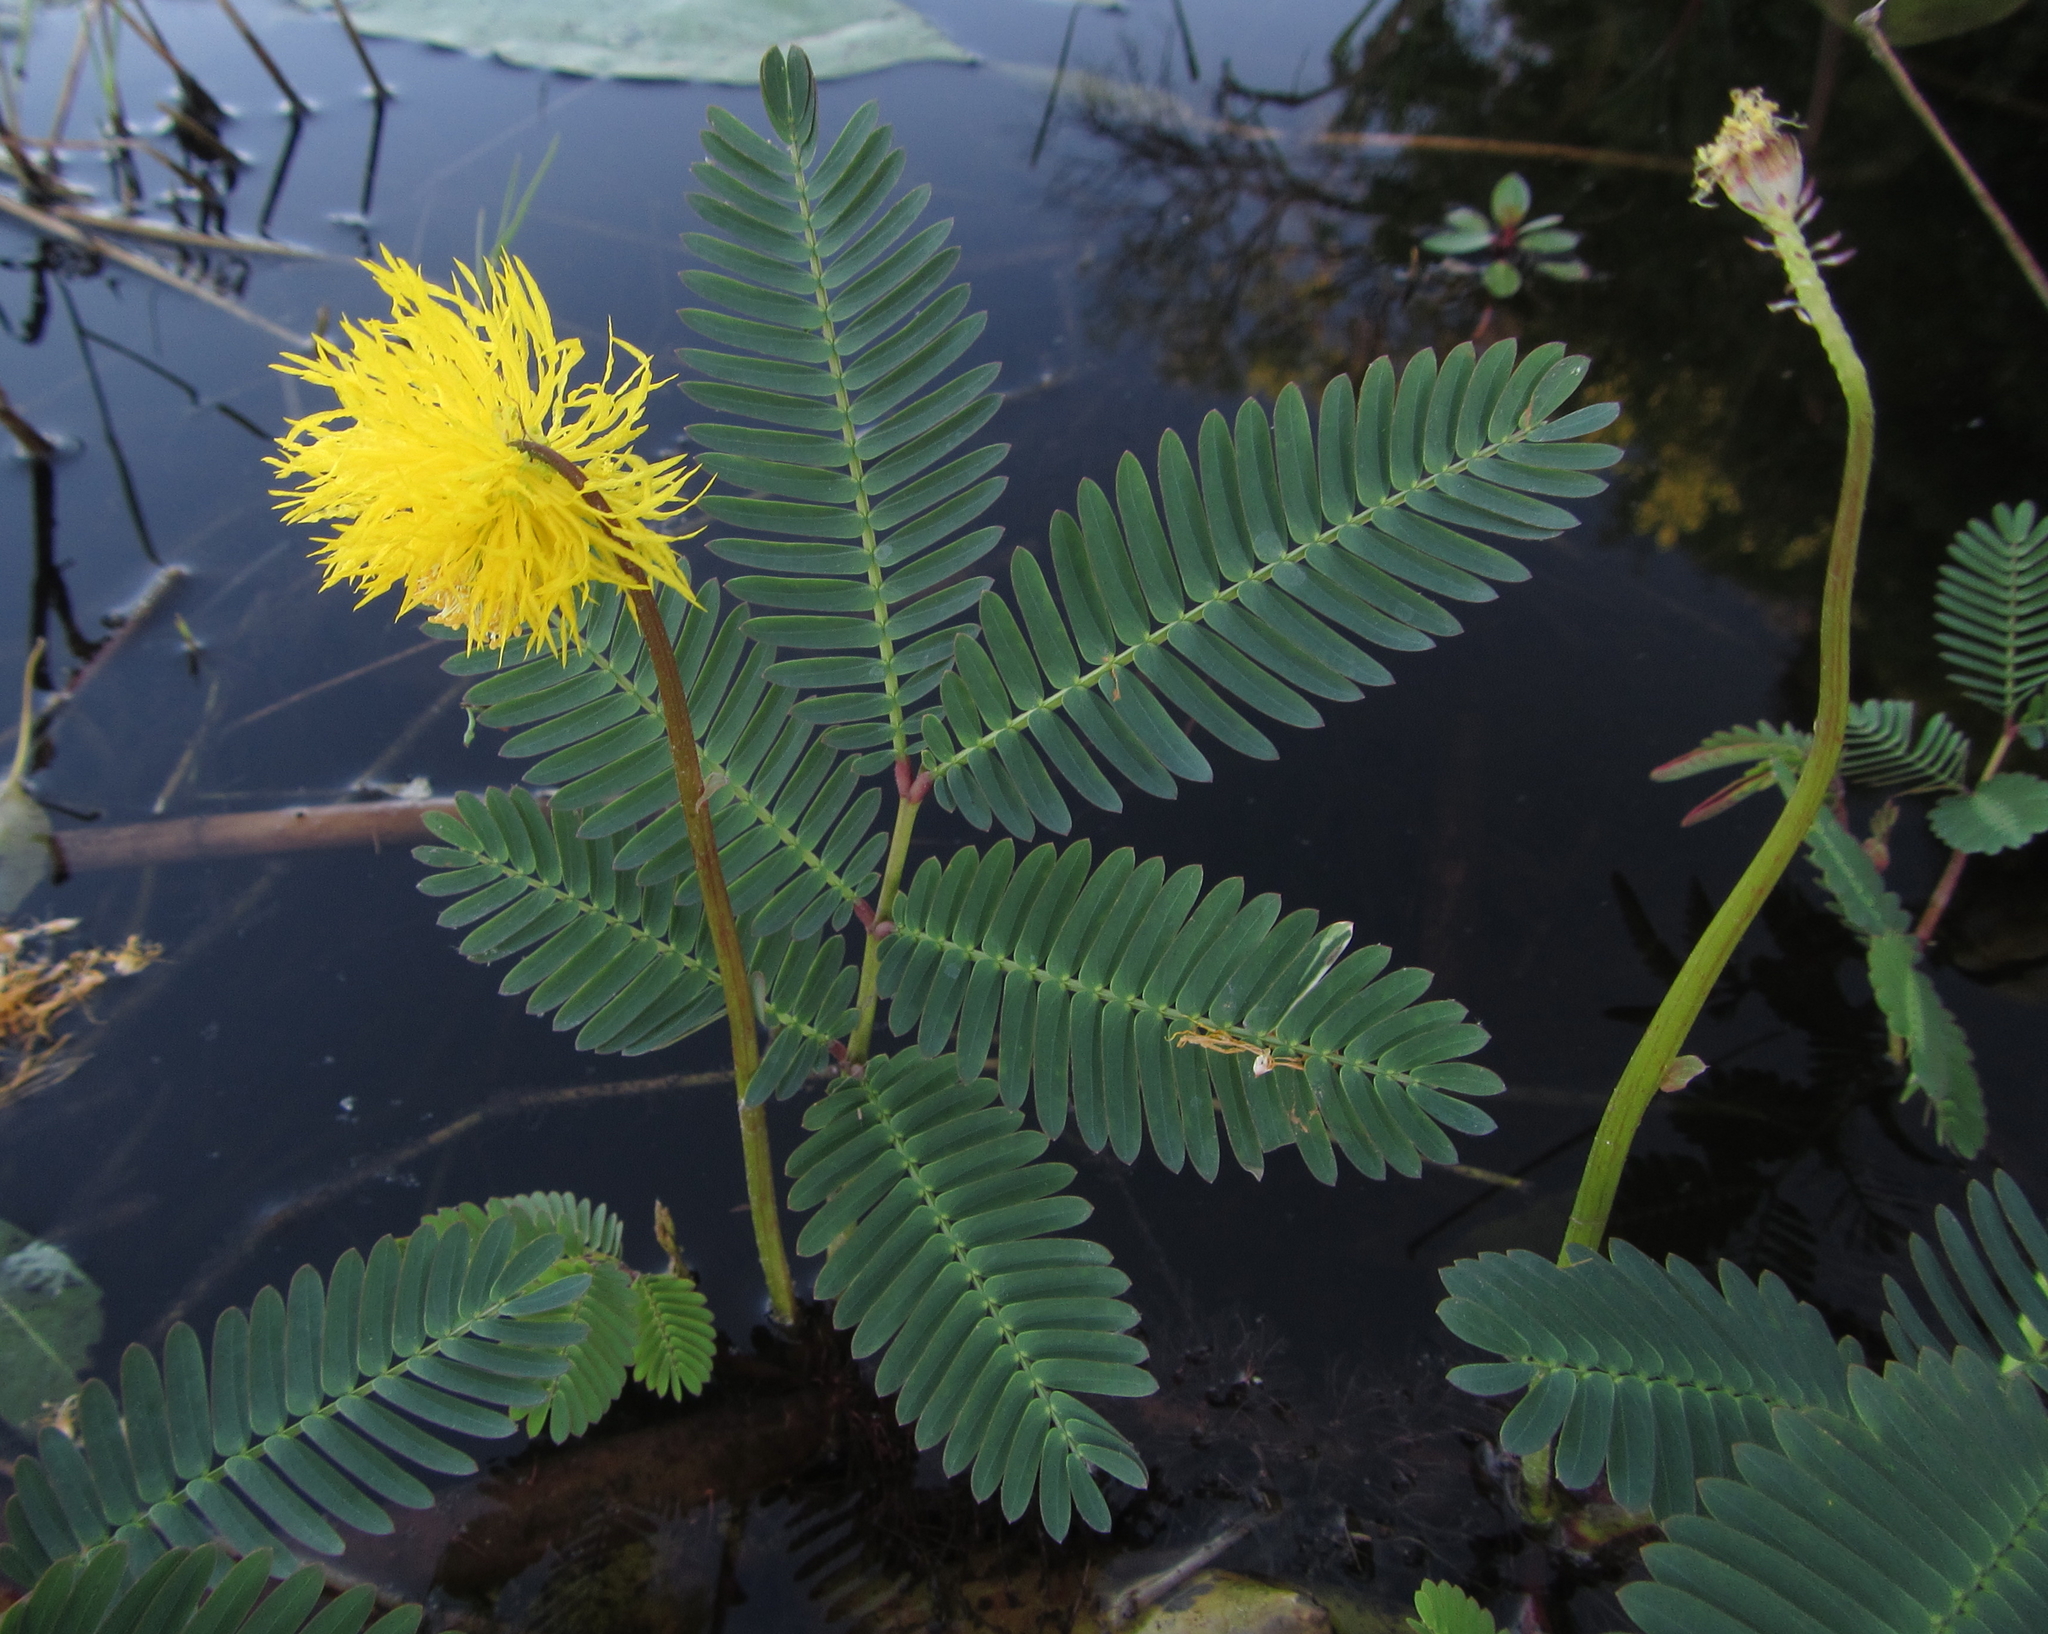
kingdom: Plantae
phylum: Tracheophyta
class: Magnoliopsida
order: Fabales
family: Fabaceae
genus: Neptunia
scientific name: Neptunia prostrata
